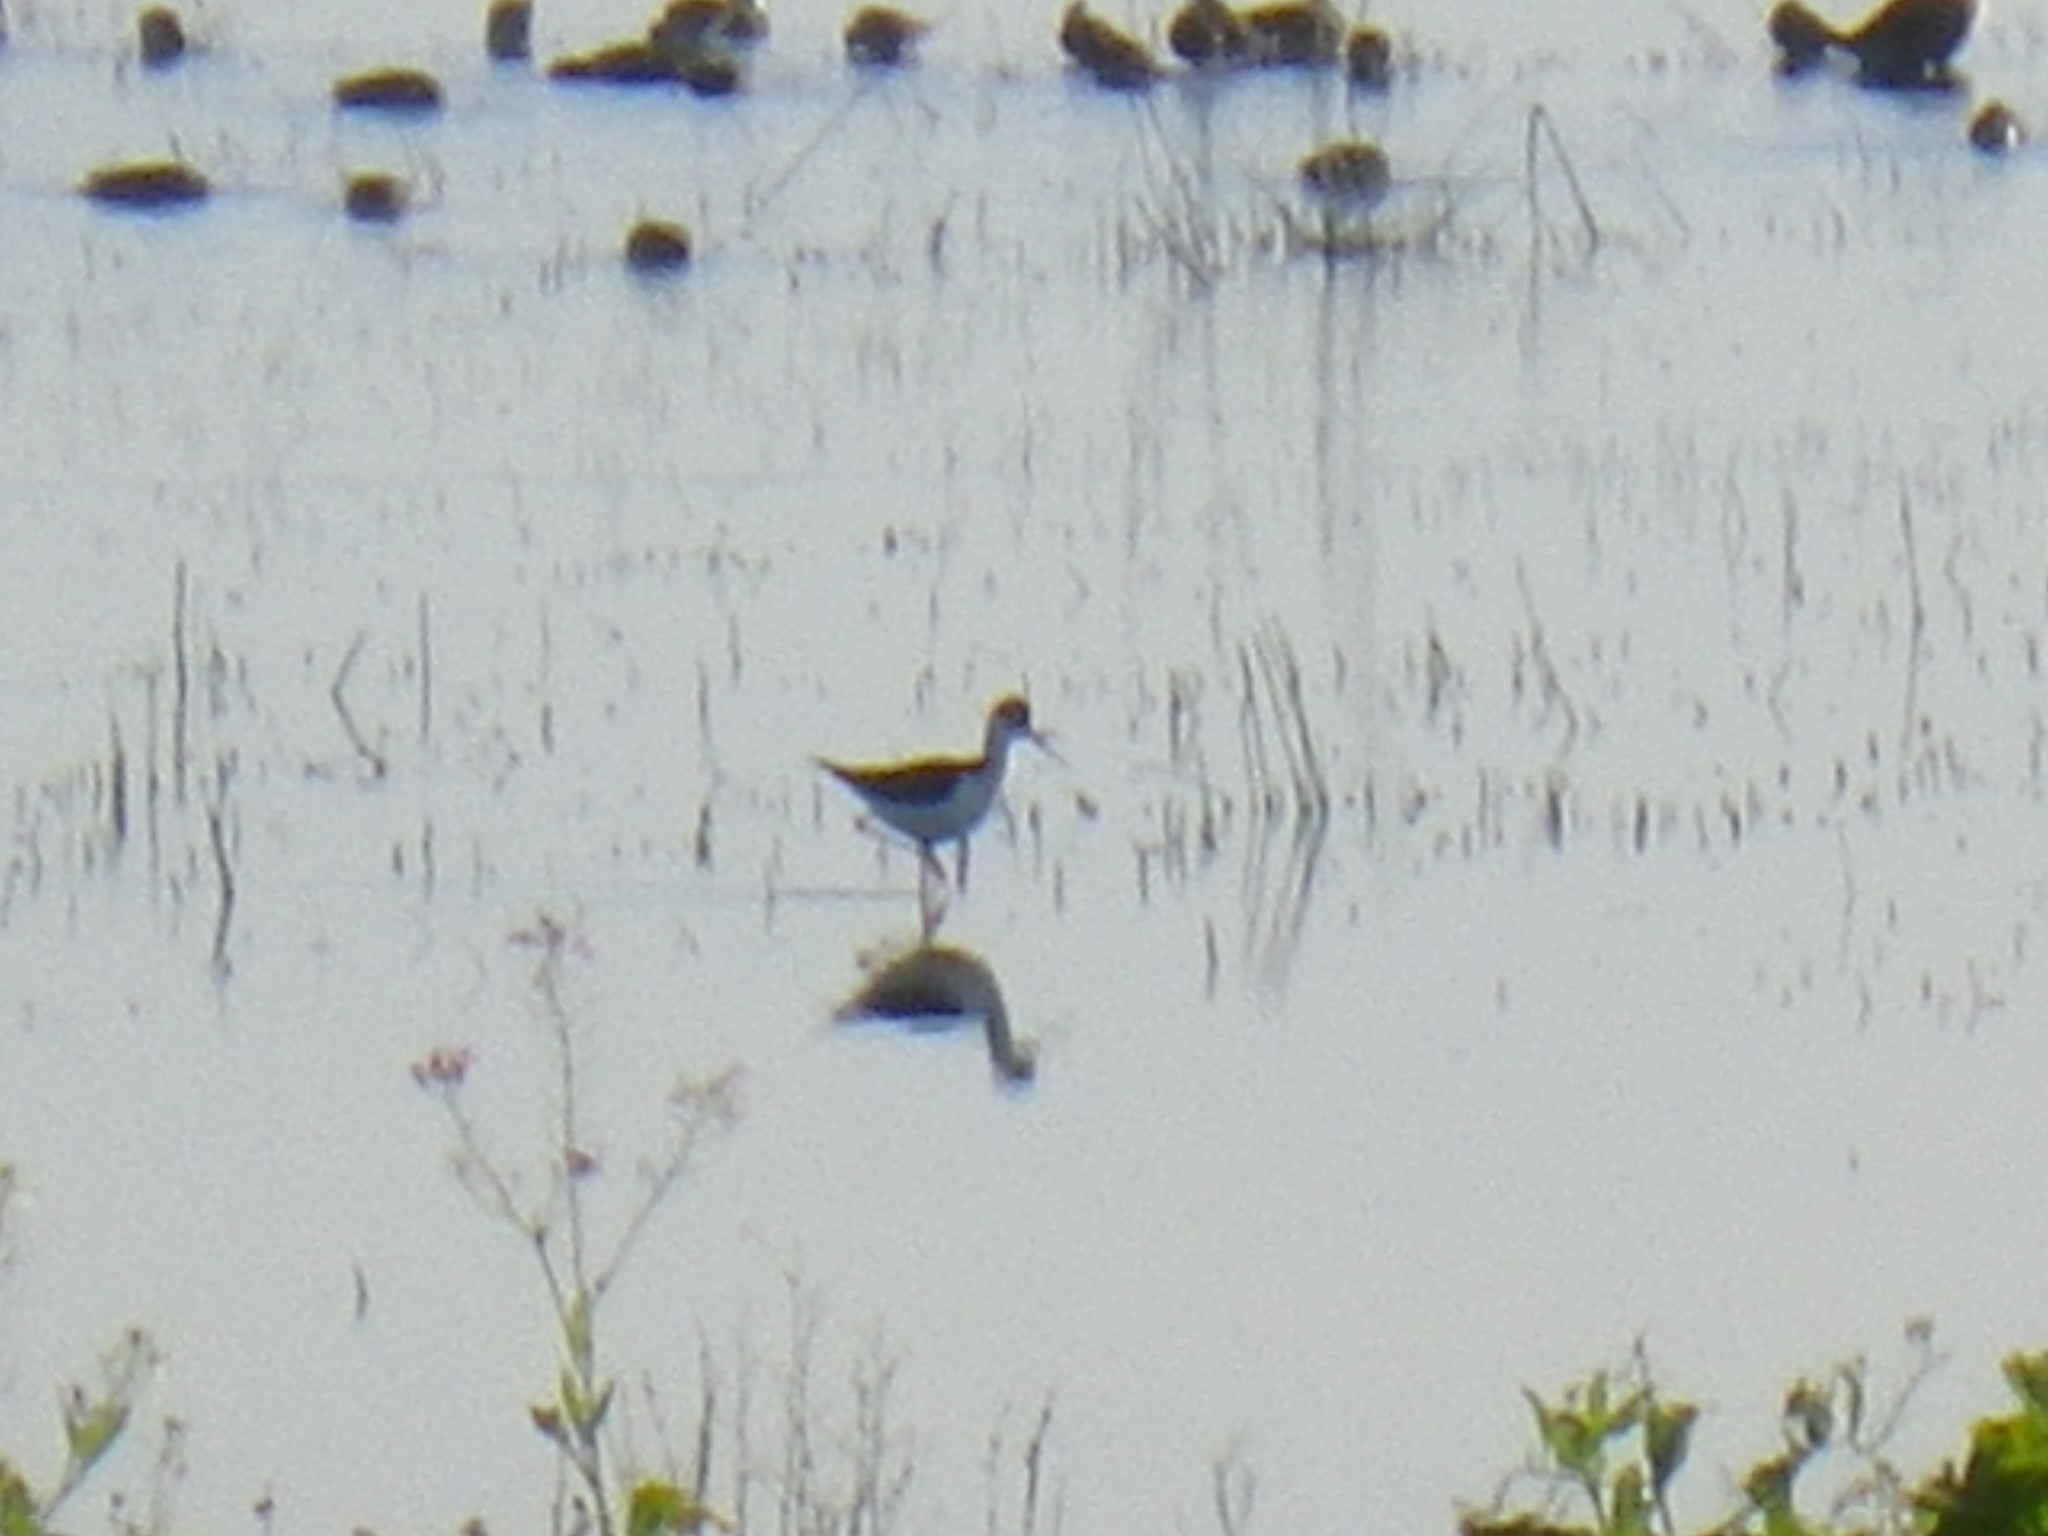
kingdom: Animalia
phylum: Chordata
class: Aves
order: Charadriiformes
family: Recurvirostridae
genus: Himantopus
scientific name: Himantopus mexicanus
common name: Black-necked stilt
